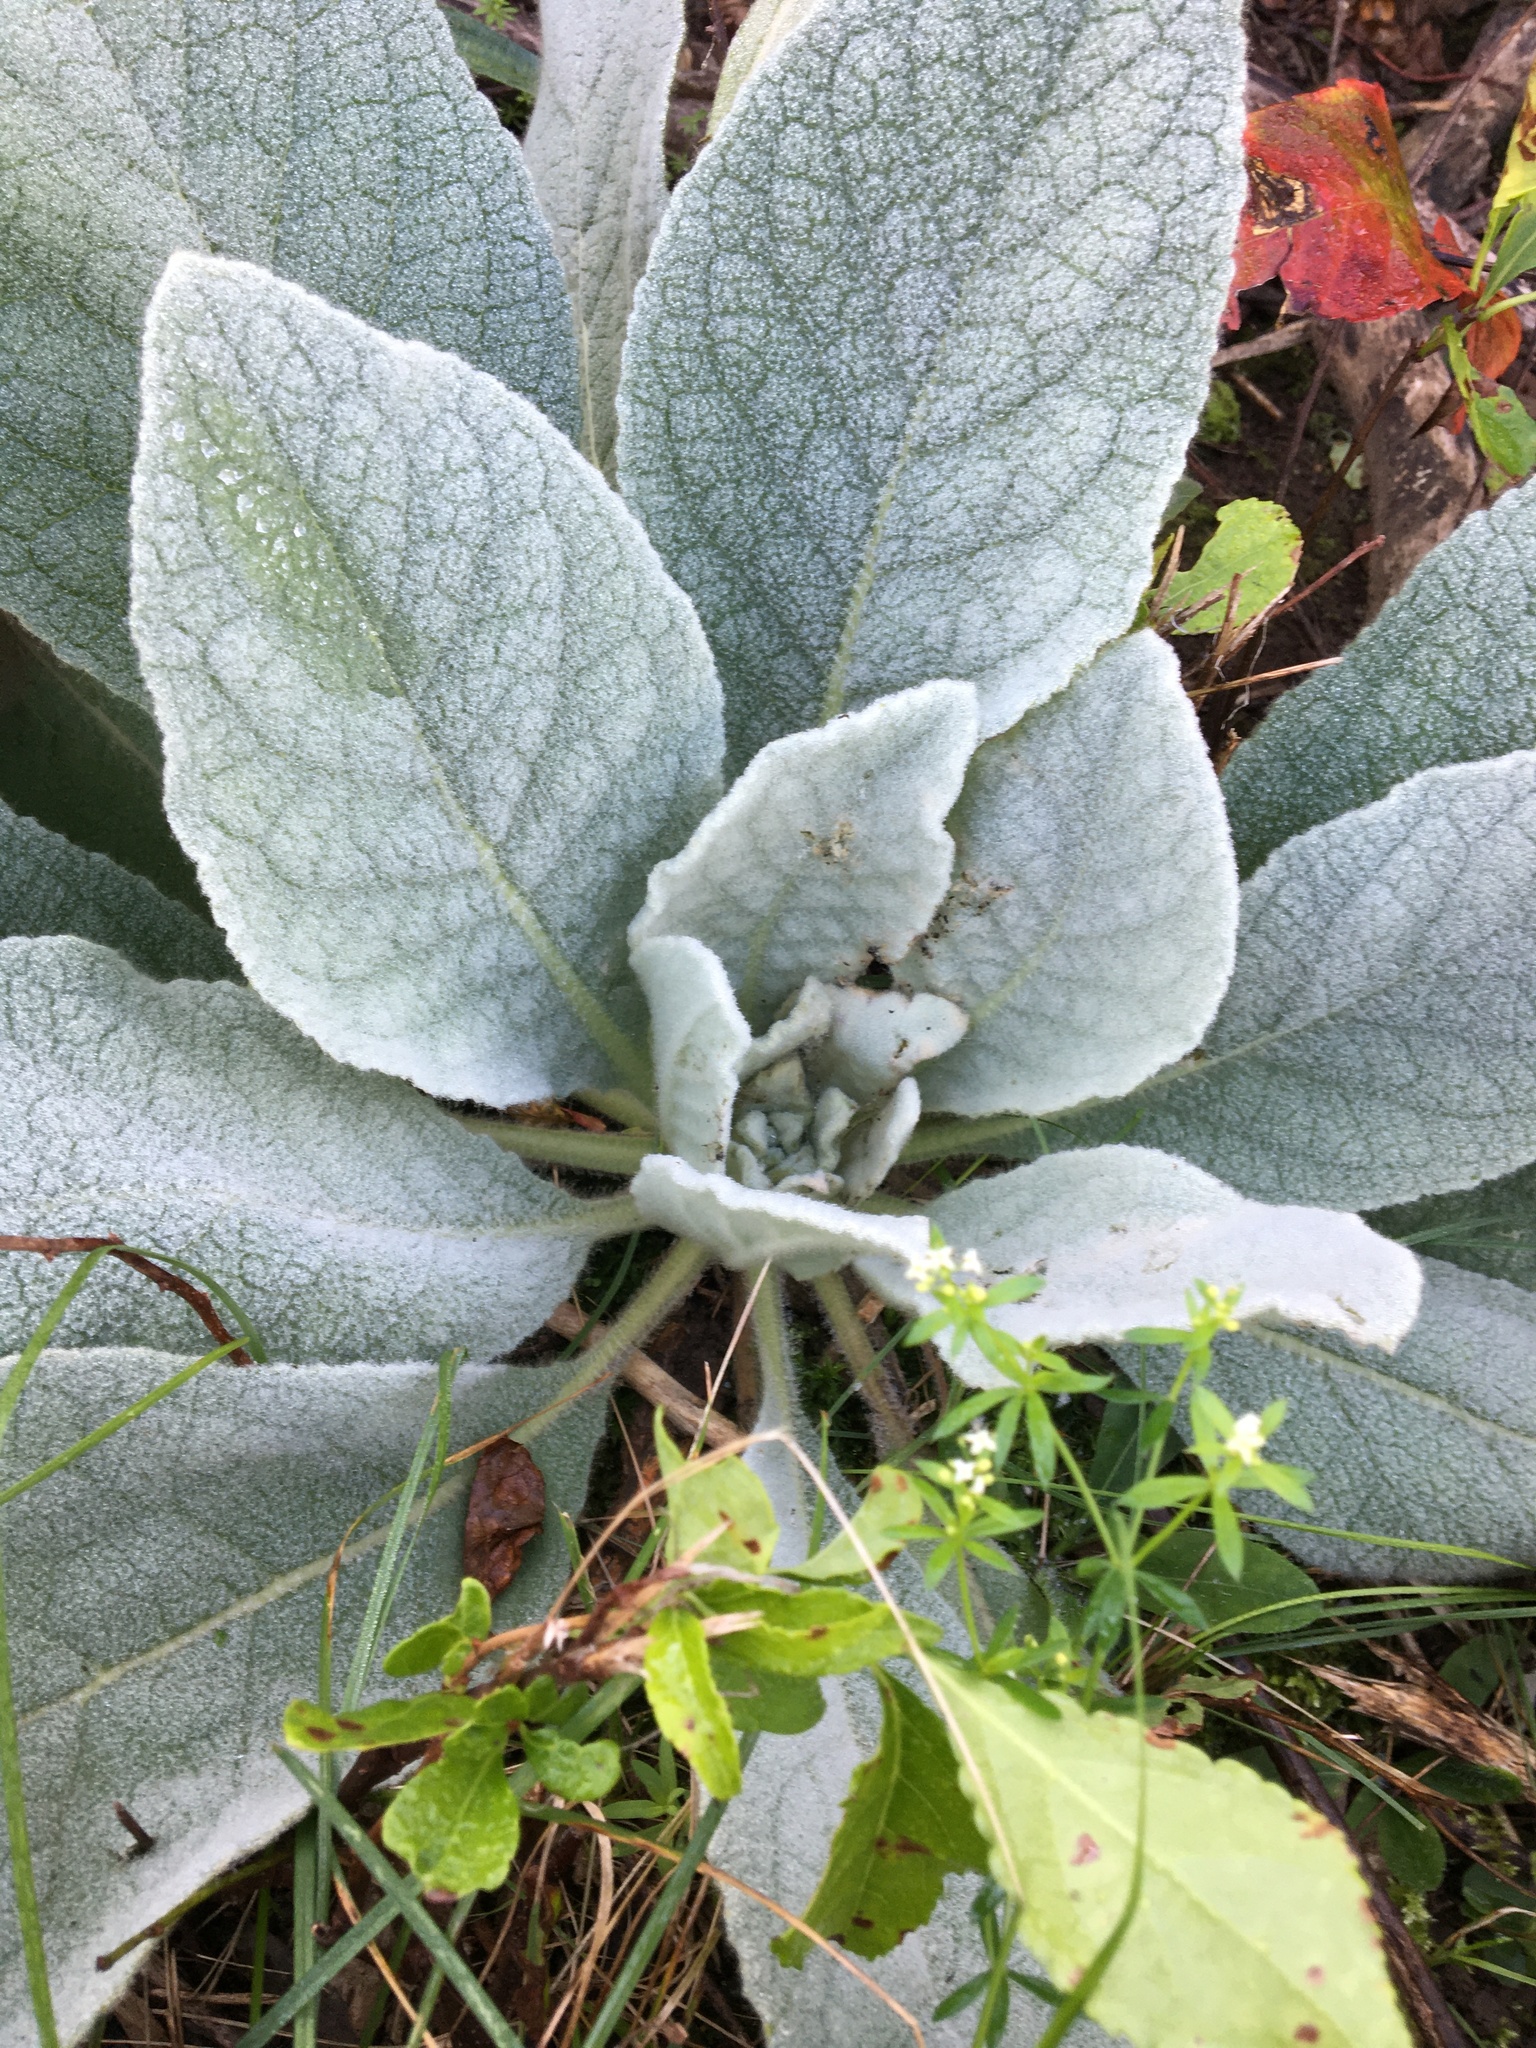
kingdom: Plantae
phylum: Tracheophyta
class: Magnoliopsida
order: Lamiales
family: Scrophulariaceae
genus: Verbascum
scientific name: Verbascum thapsus
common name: Common mullein
